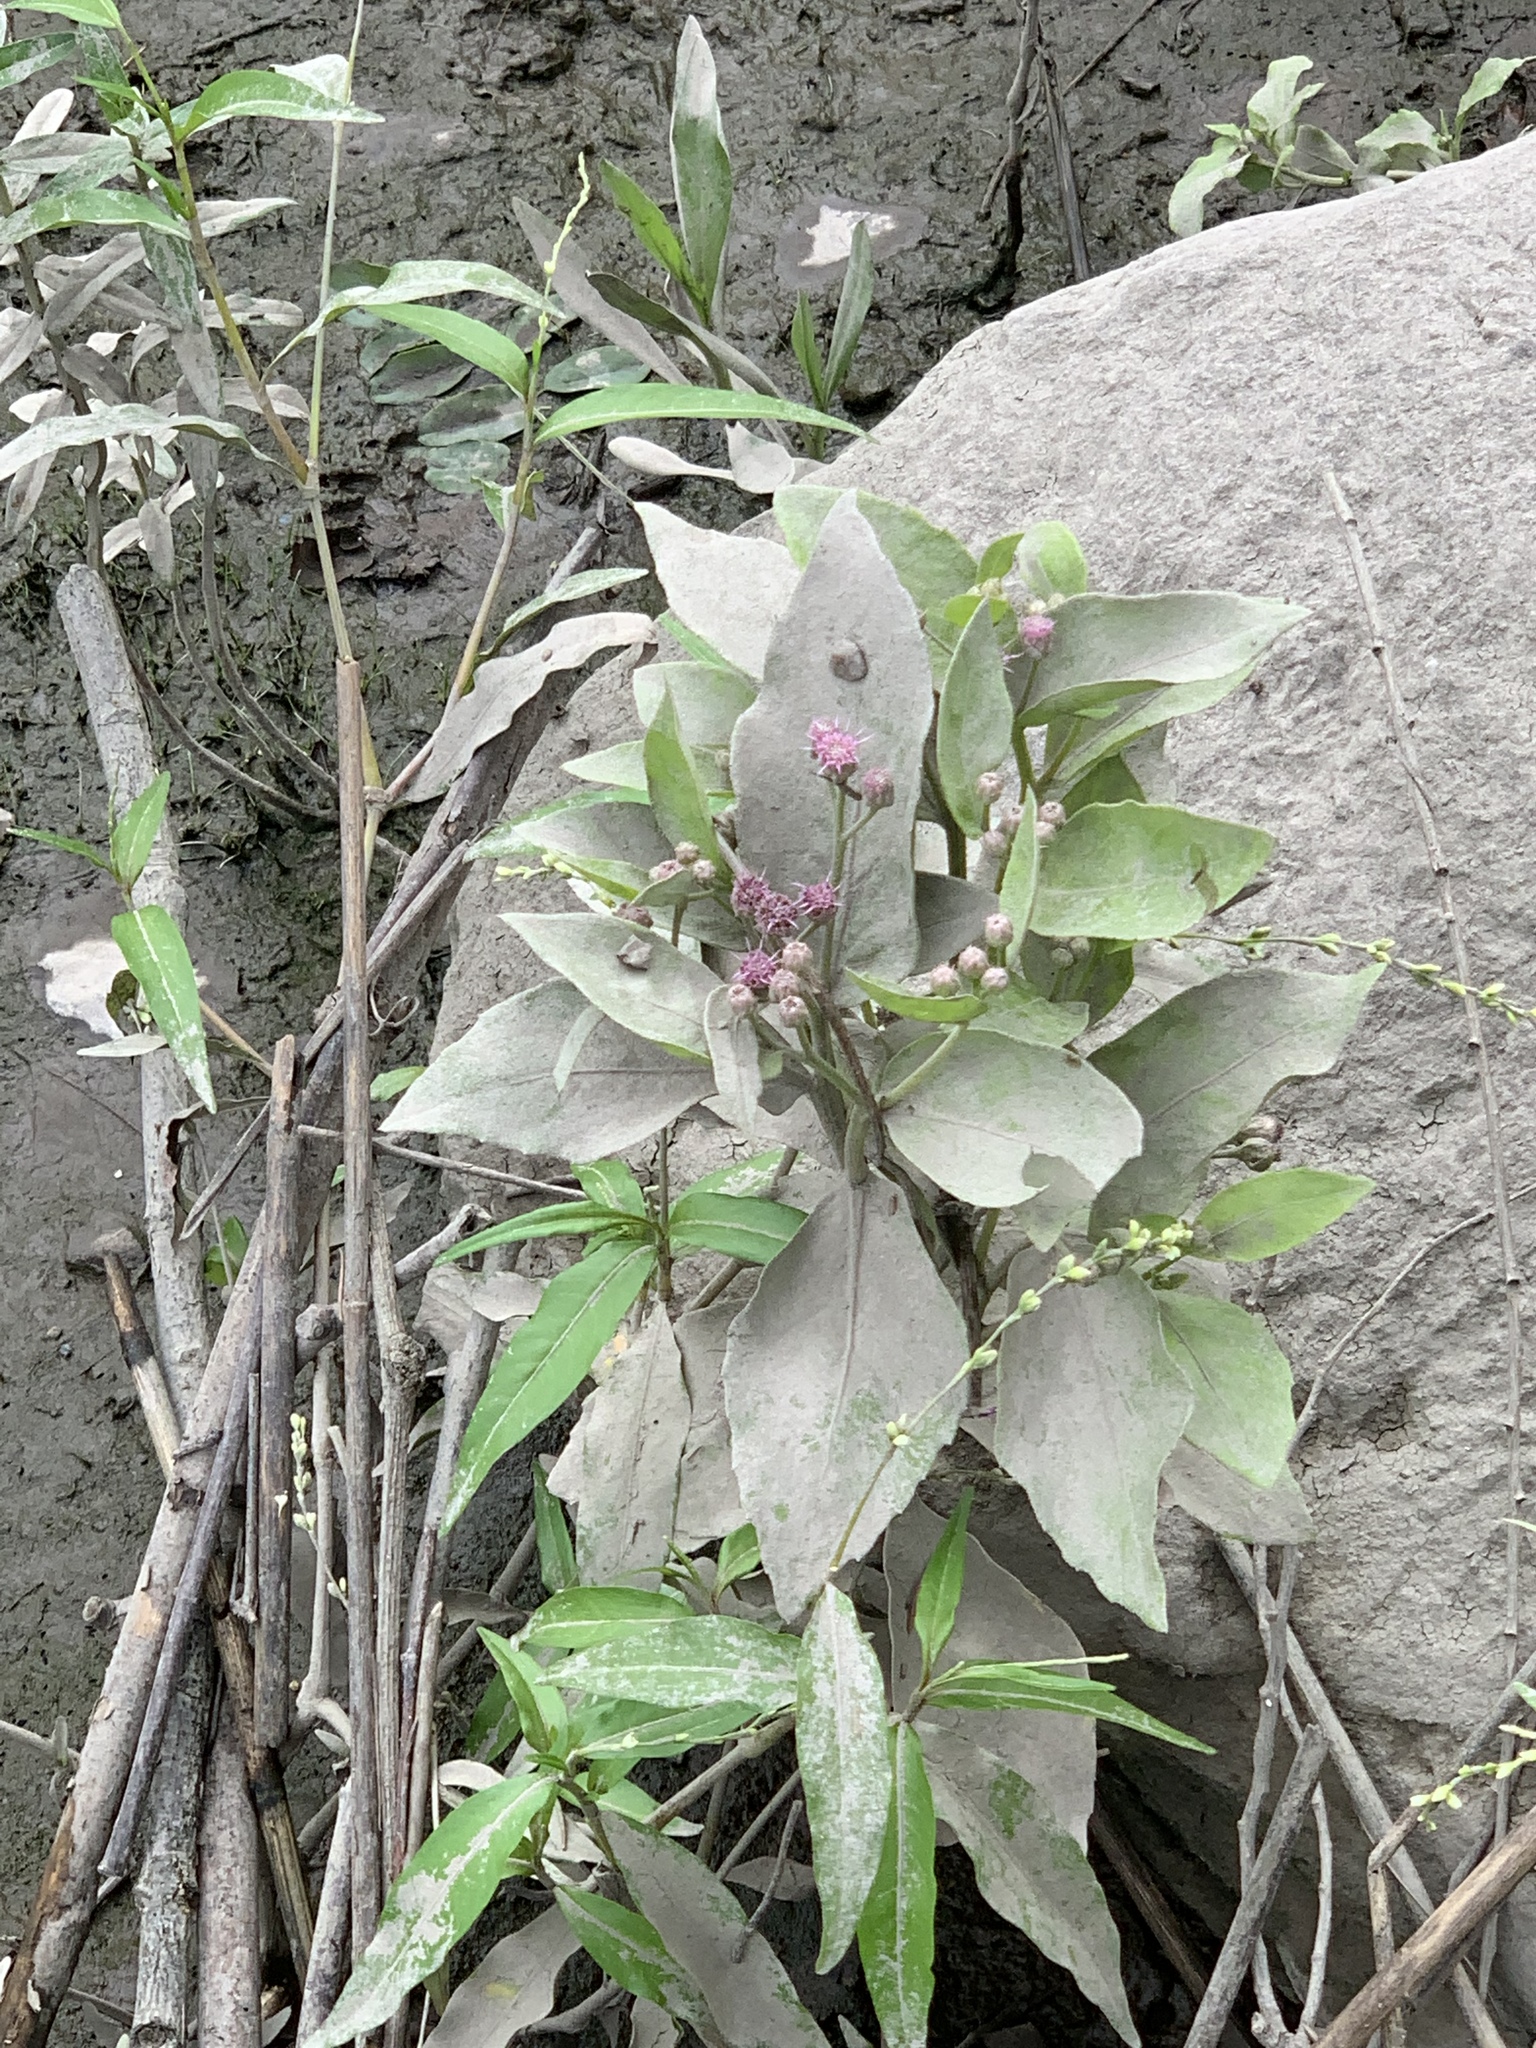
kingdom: Plantae
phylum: Tracheophyta
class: Magnoliopsida
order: Asterales
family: Asteraceae
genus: Pluchea
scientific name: Pluchea odorata
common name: Saltmarsh fleabane
